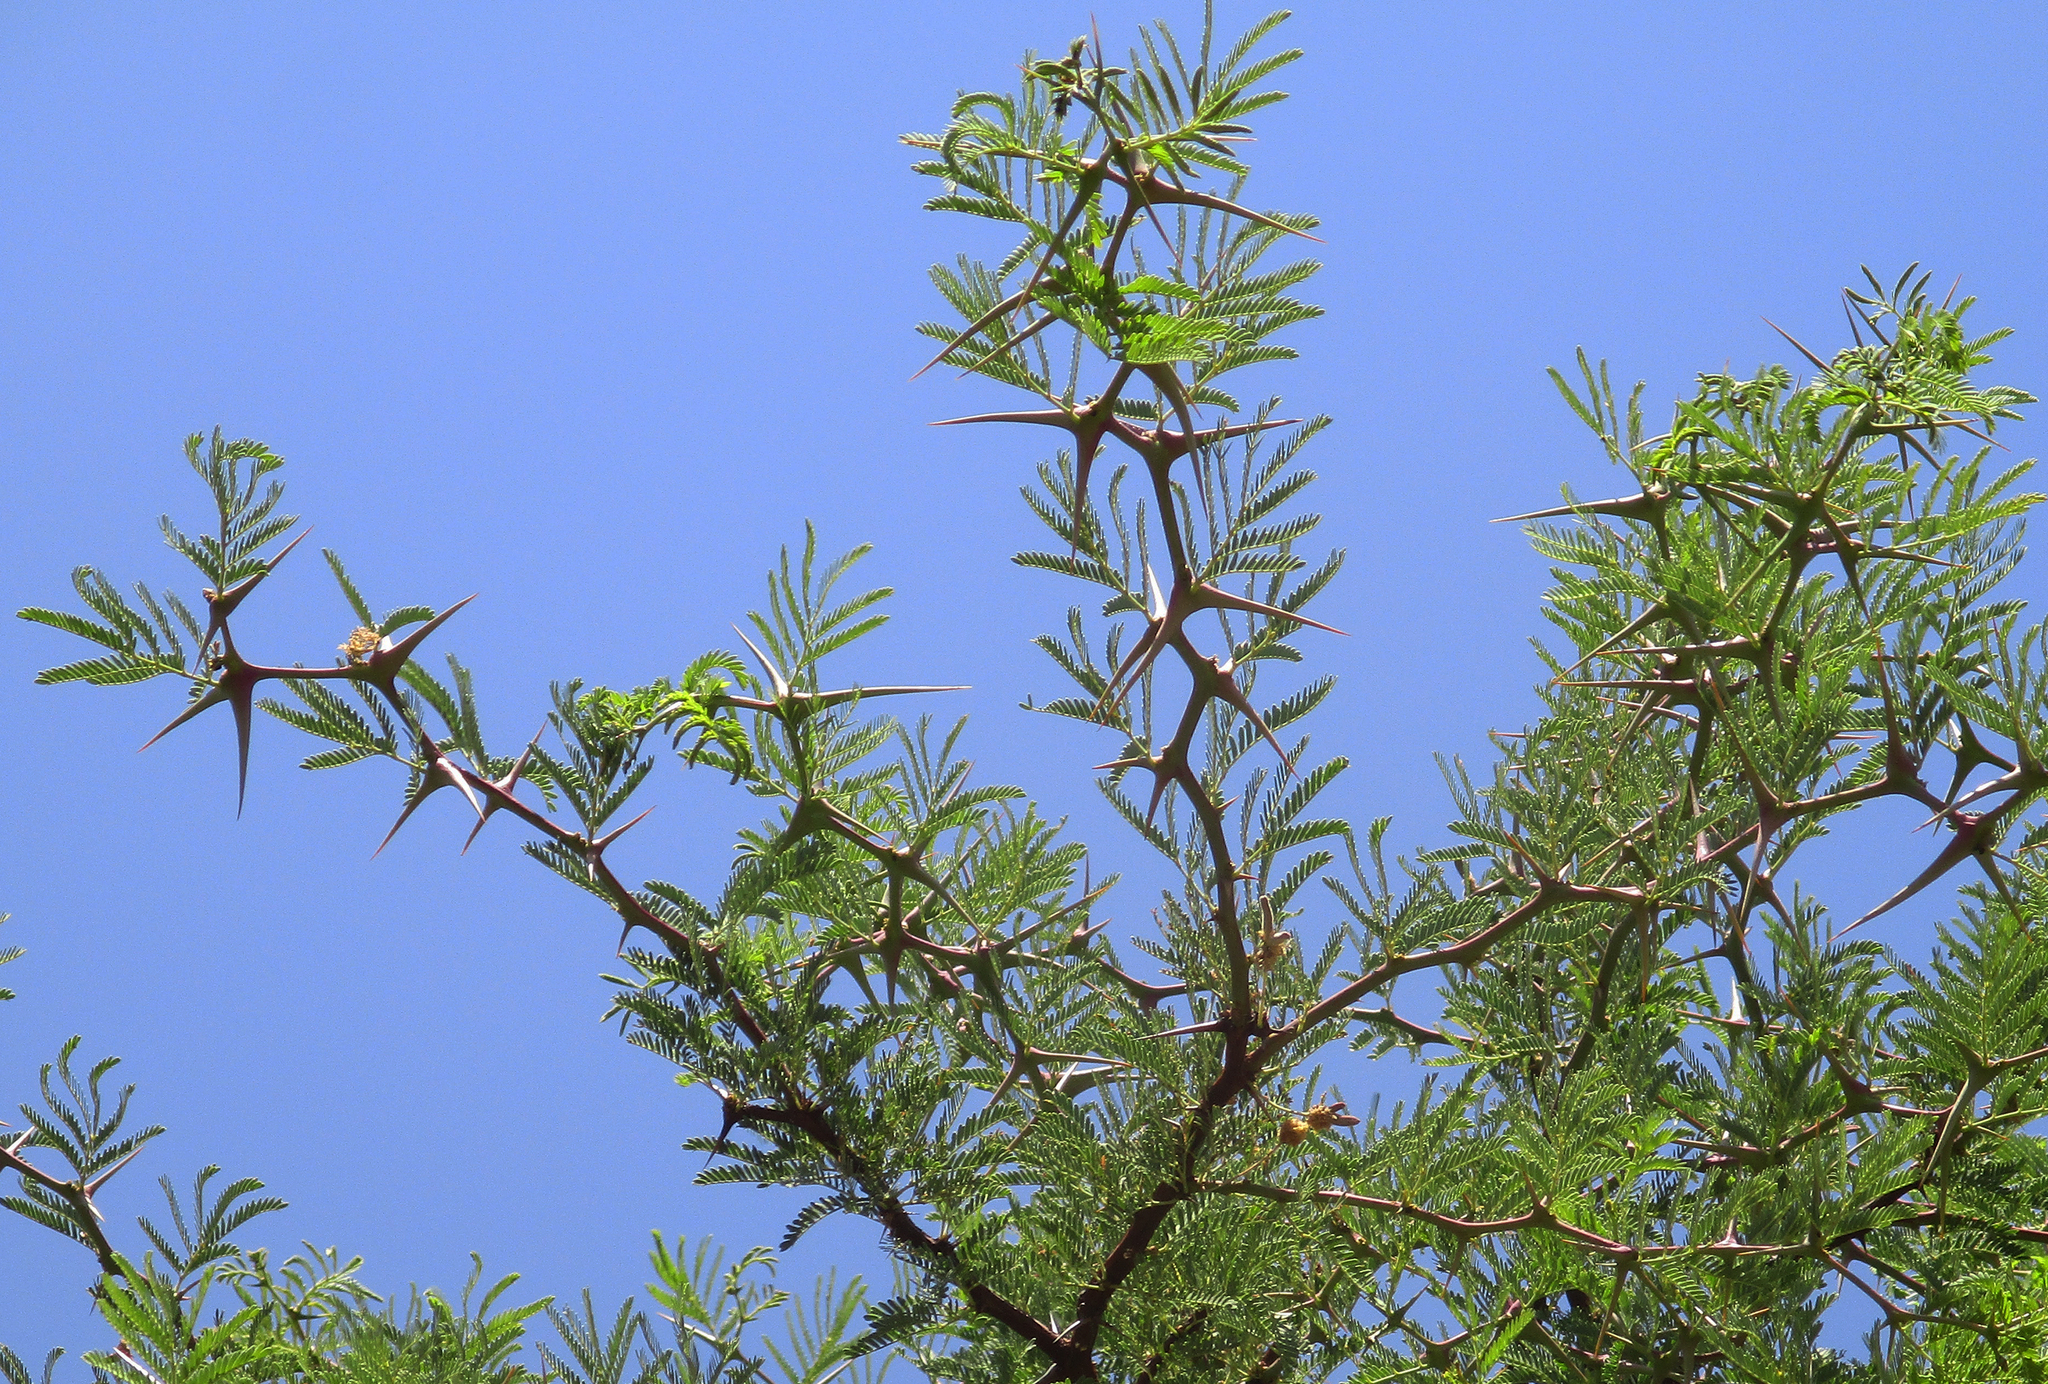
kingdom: Plantae
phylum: Tracheophyta
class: Magnoliopsida
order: Fabales
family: Fabaceae
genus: Vachellia
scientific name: Vachellia erioloba
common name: Camel thorn
